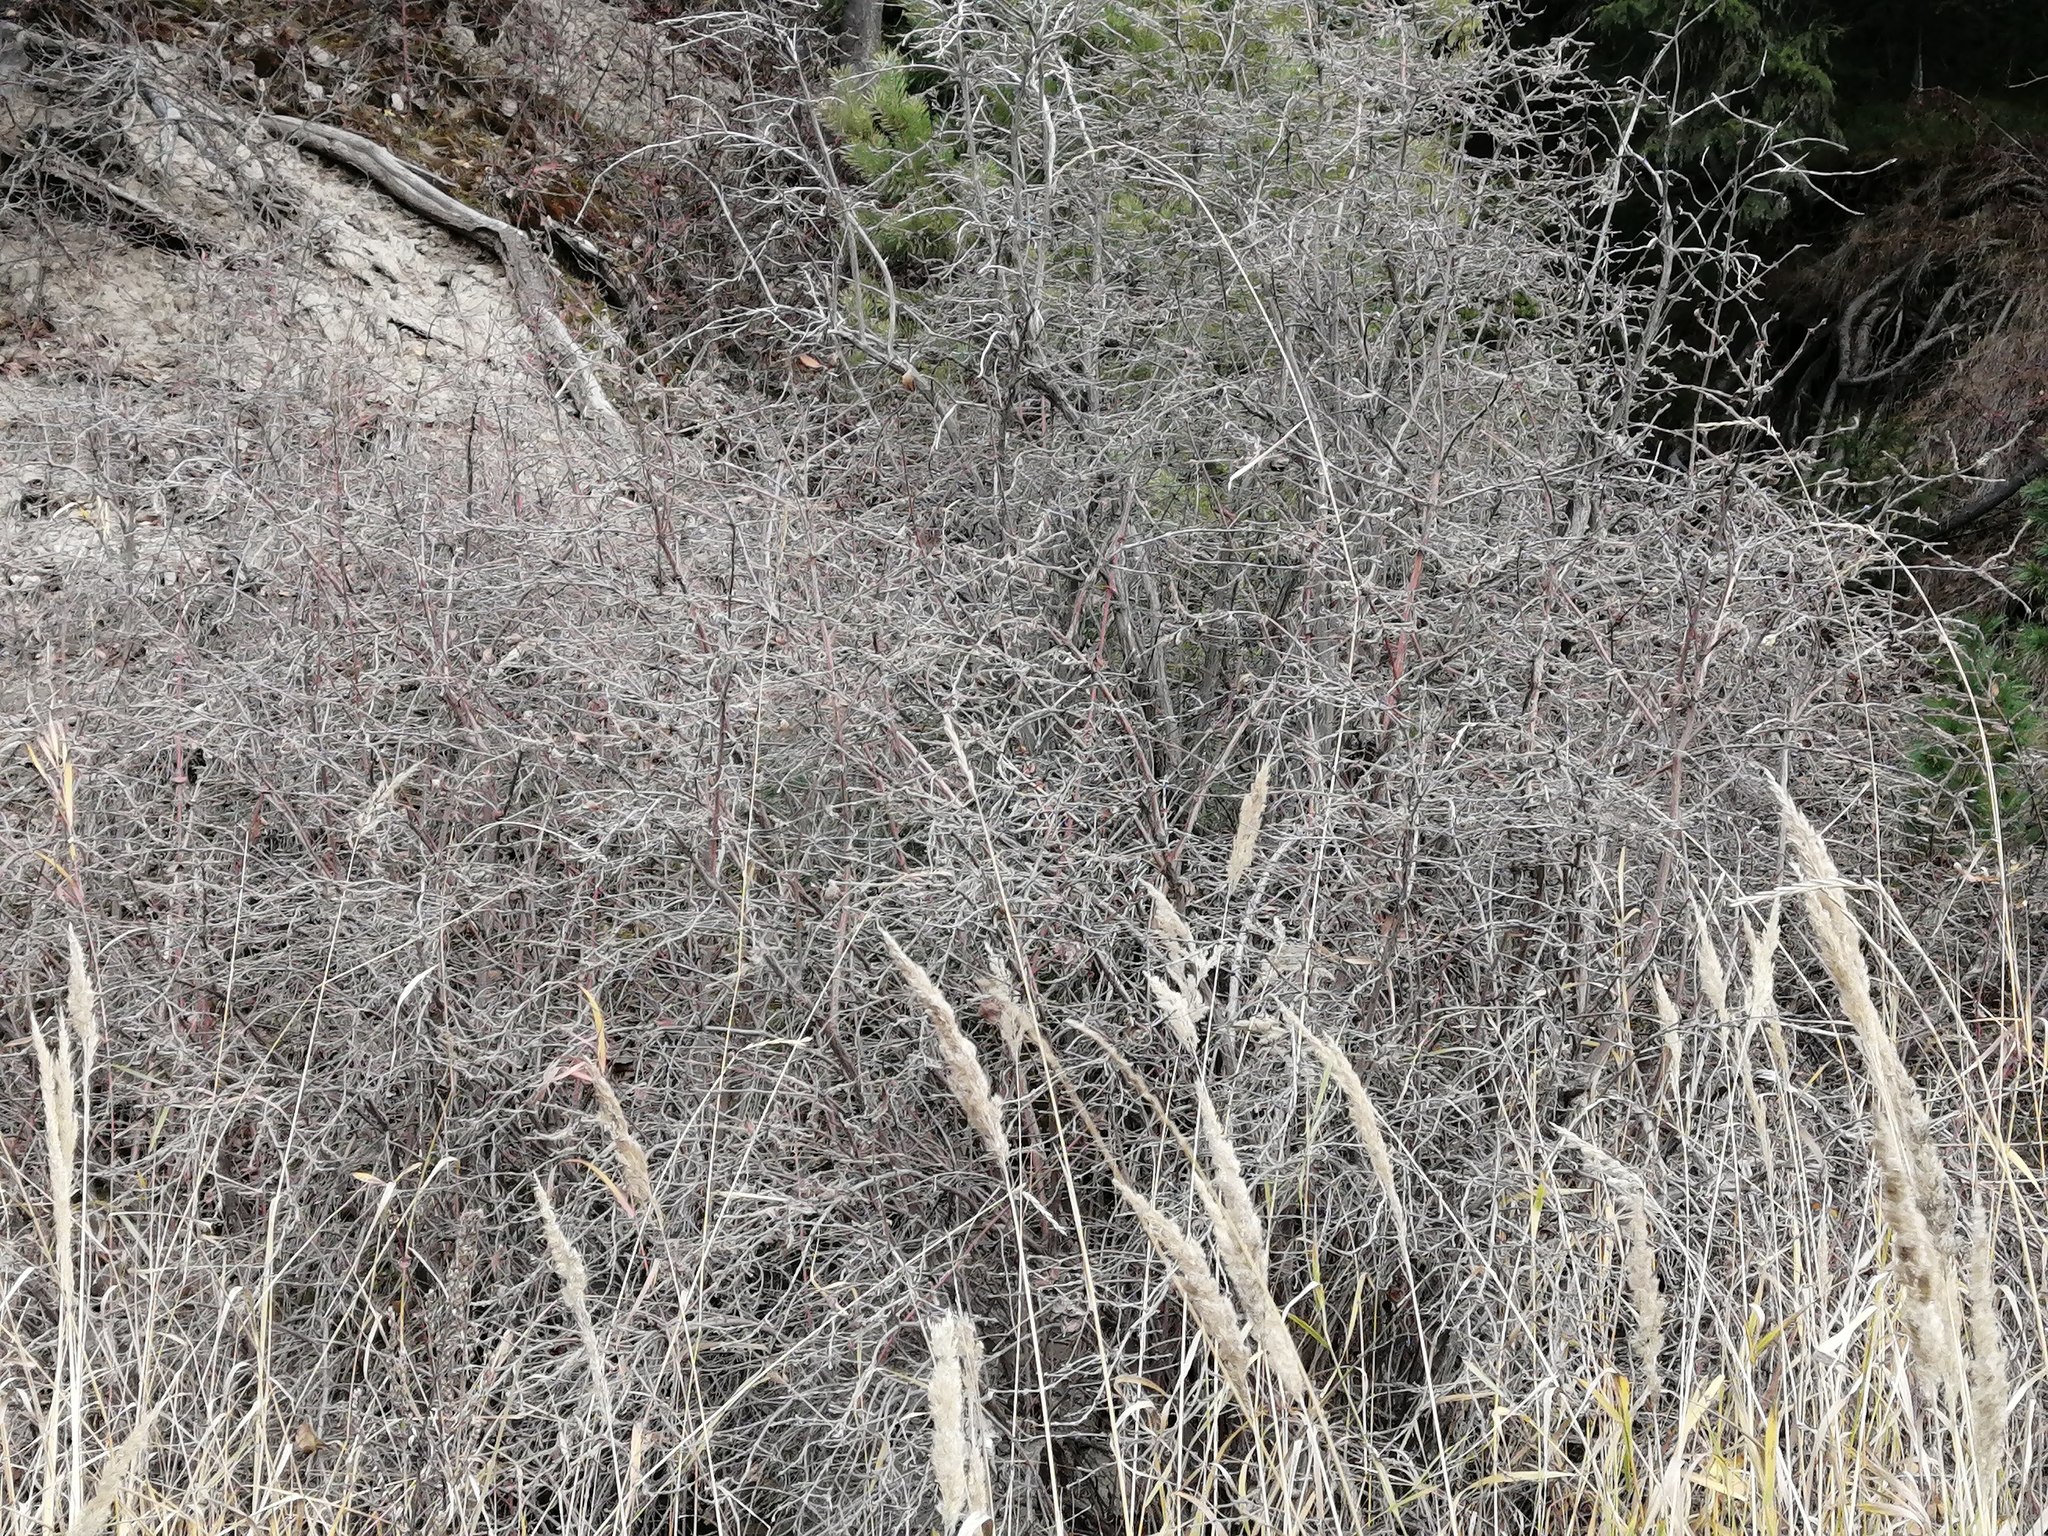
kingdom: Plantae
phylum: Tracheophyta
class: Magnoliopsida
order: Dipsacales
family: Caprifoliaceae
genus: Lonicera
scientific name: Lonicera tatarica
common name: Tatarian honeysuckle
